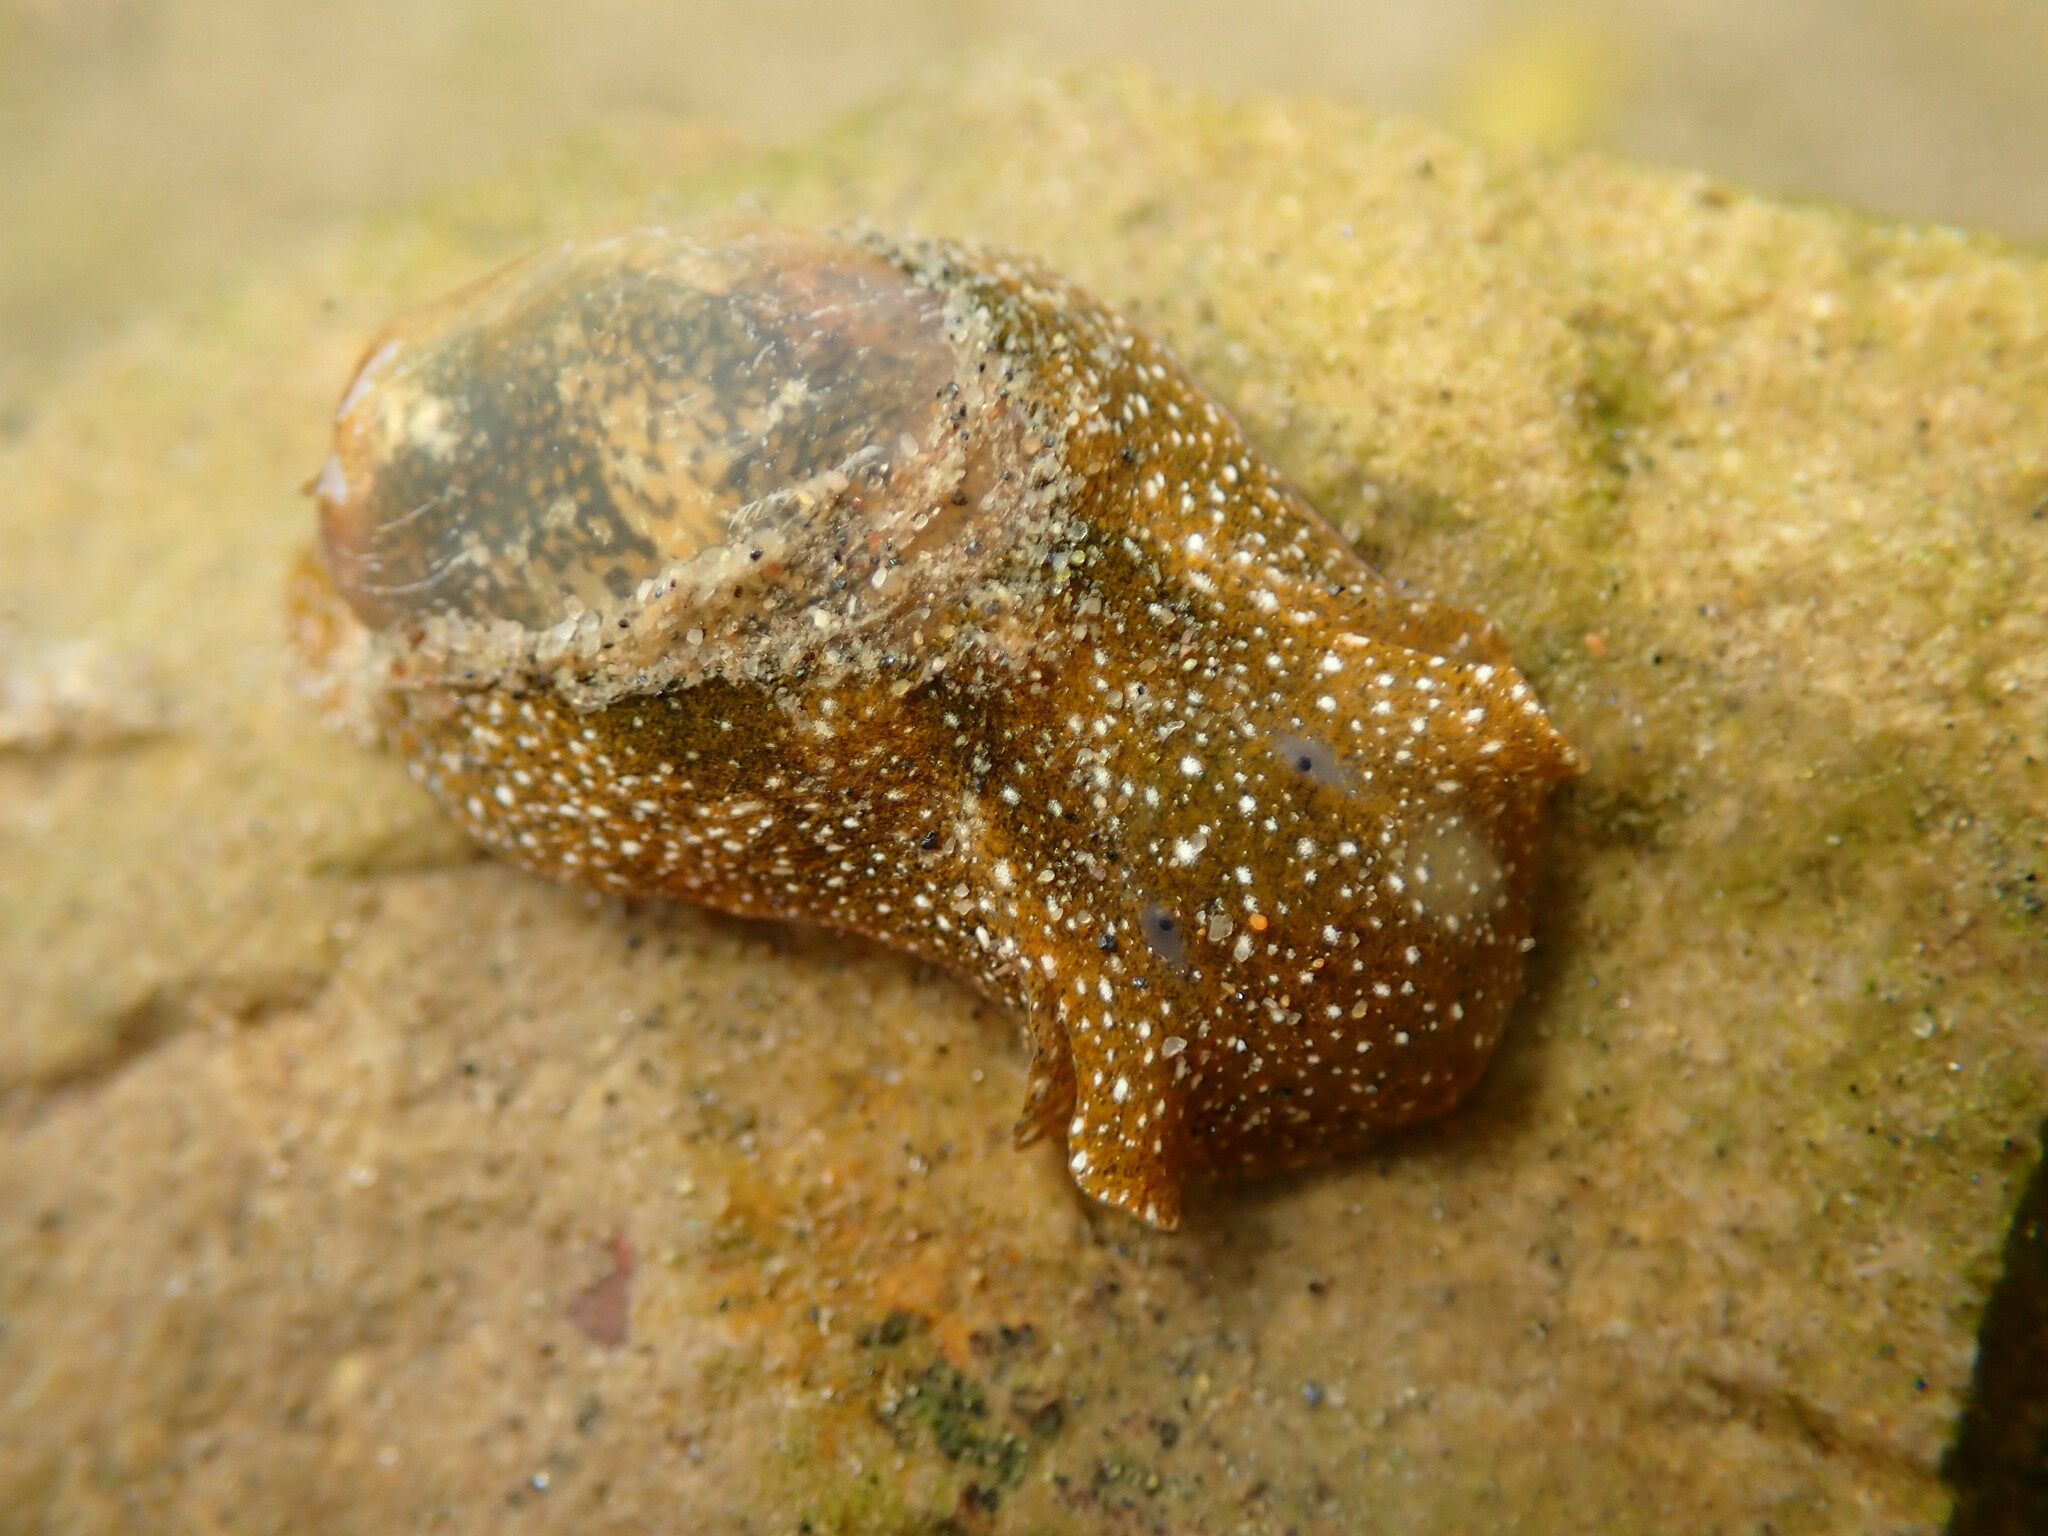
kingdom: Animalia
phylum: Mollusca
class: Gastropoda
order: Cephalaspidea
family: Haminoeidae
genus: Haminoea
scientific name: Haminoea virescens
